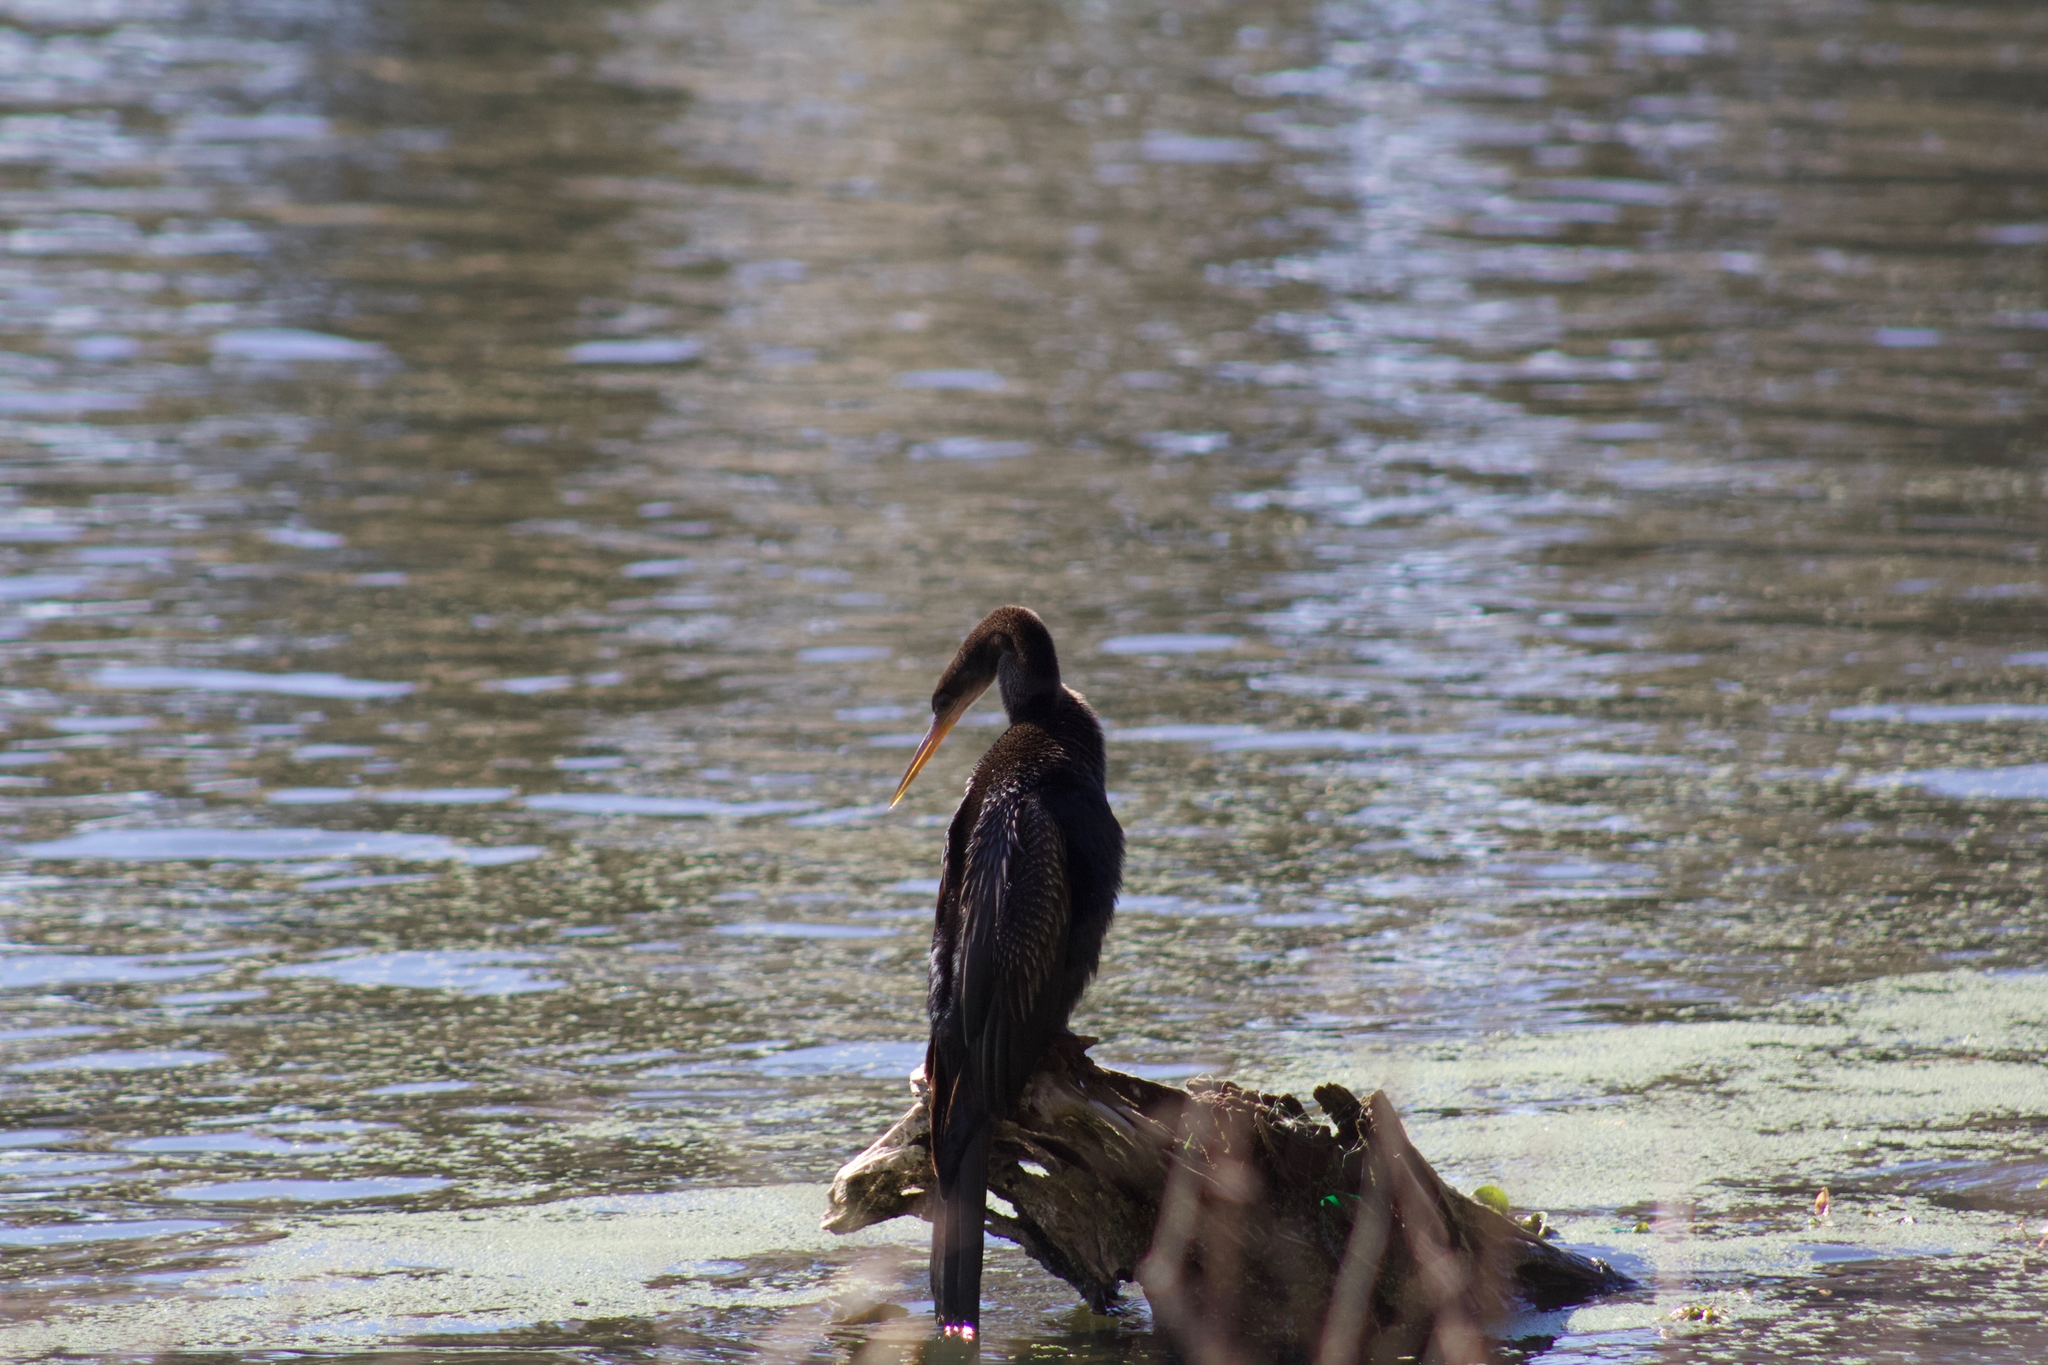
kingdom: Animalia
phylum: Chordata
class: Aves
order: Suliformes
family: Anhingidae
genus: Anhinga
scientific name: Anhinga anhinga
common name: Anhinga
